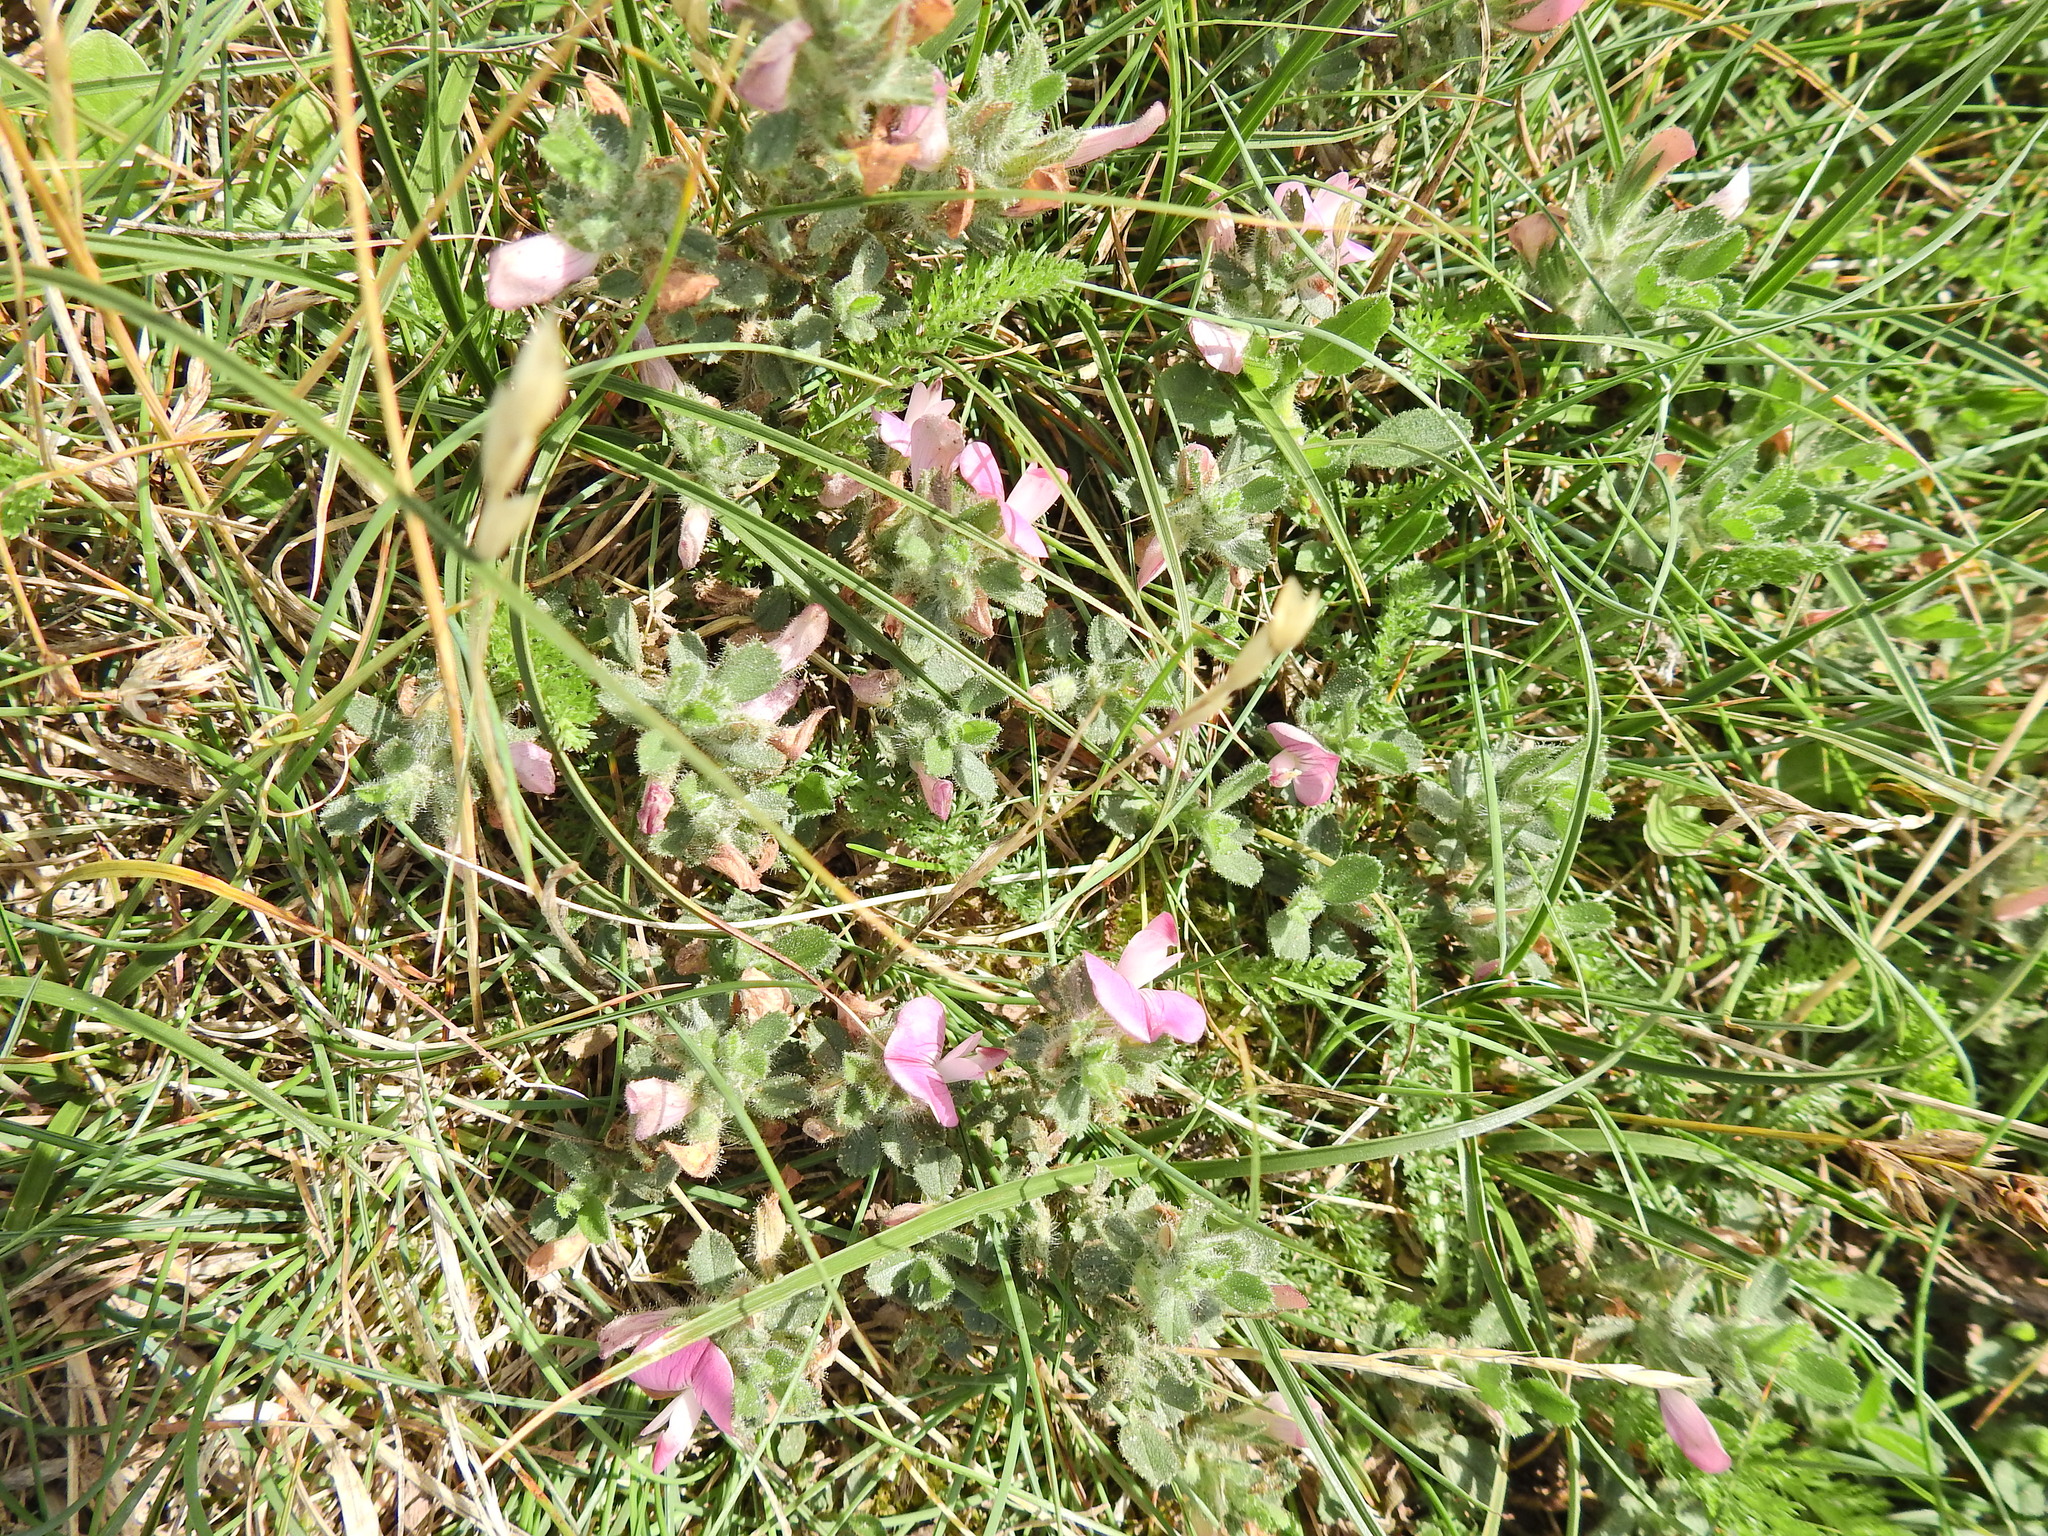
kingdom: Plantae
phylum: Tracheophyta
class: Magnoliopsida
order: Fabales
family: Fabaceae
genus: Ononis
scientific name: Ononis spinosa
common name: Spiny restharrow
